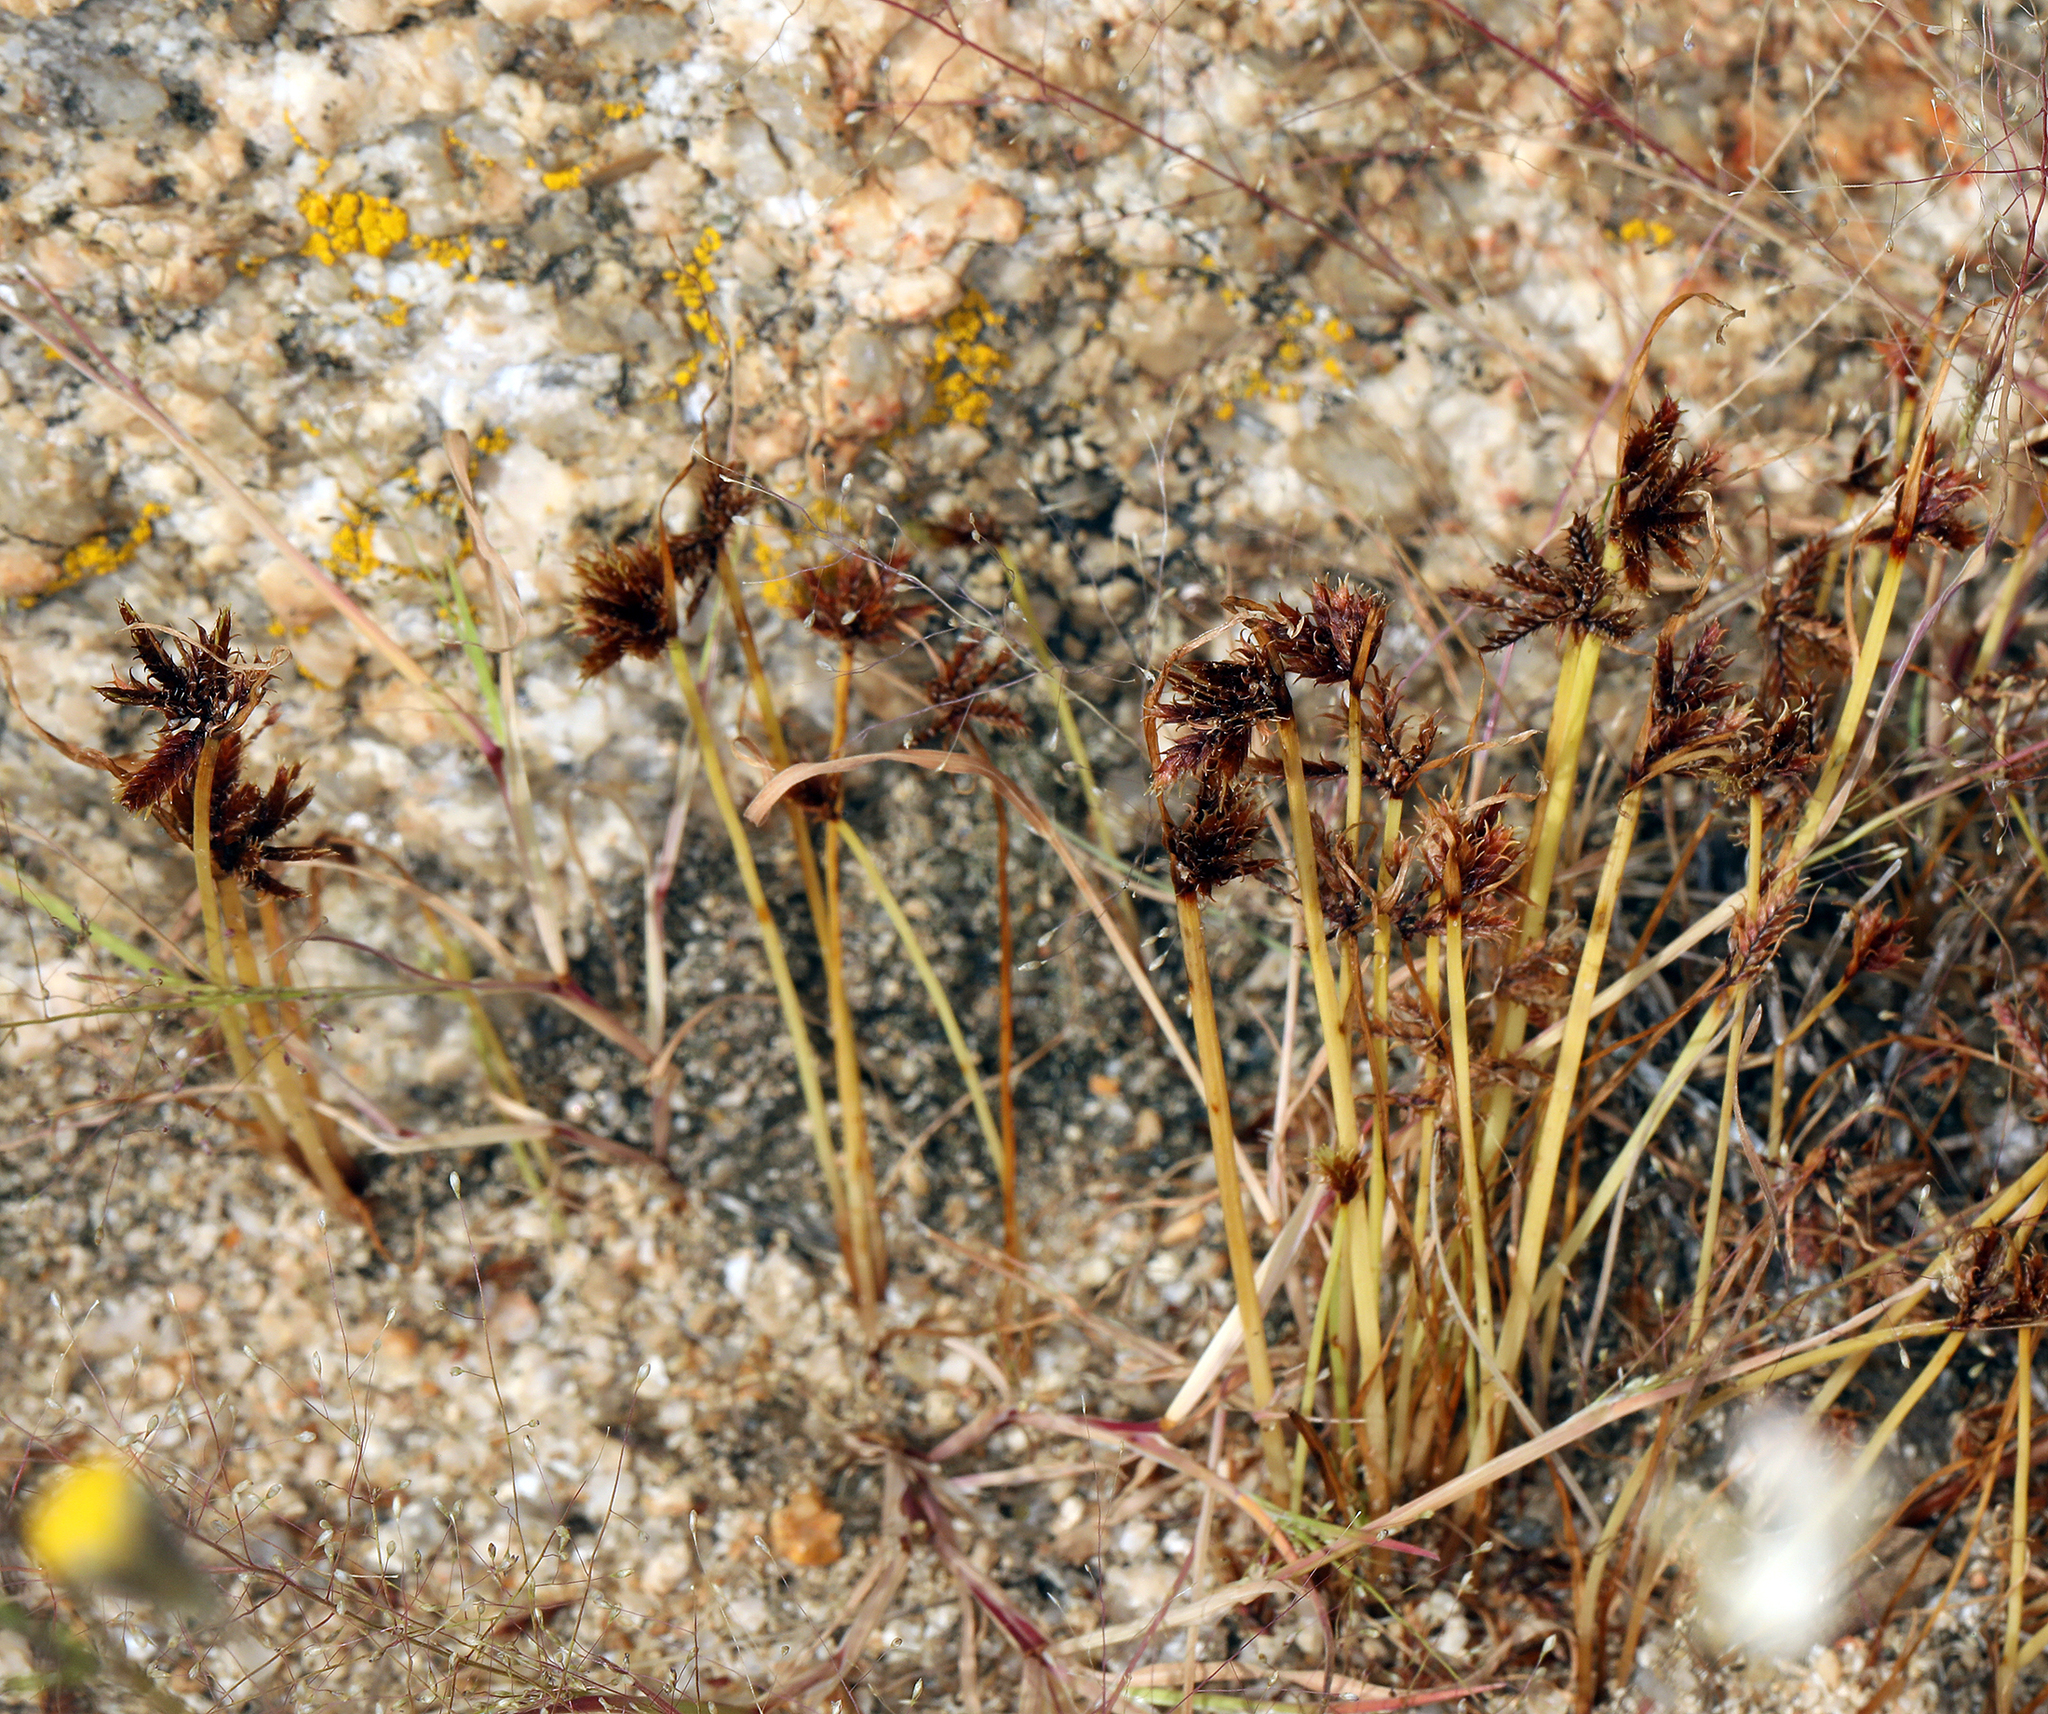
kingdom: Plantae
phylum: Tracheophyta
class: Liliopsida
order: Poales
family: Cyperaceae
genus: Cyperus
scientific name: Cyperus squarrosus
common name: Awned cyperus
